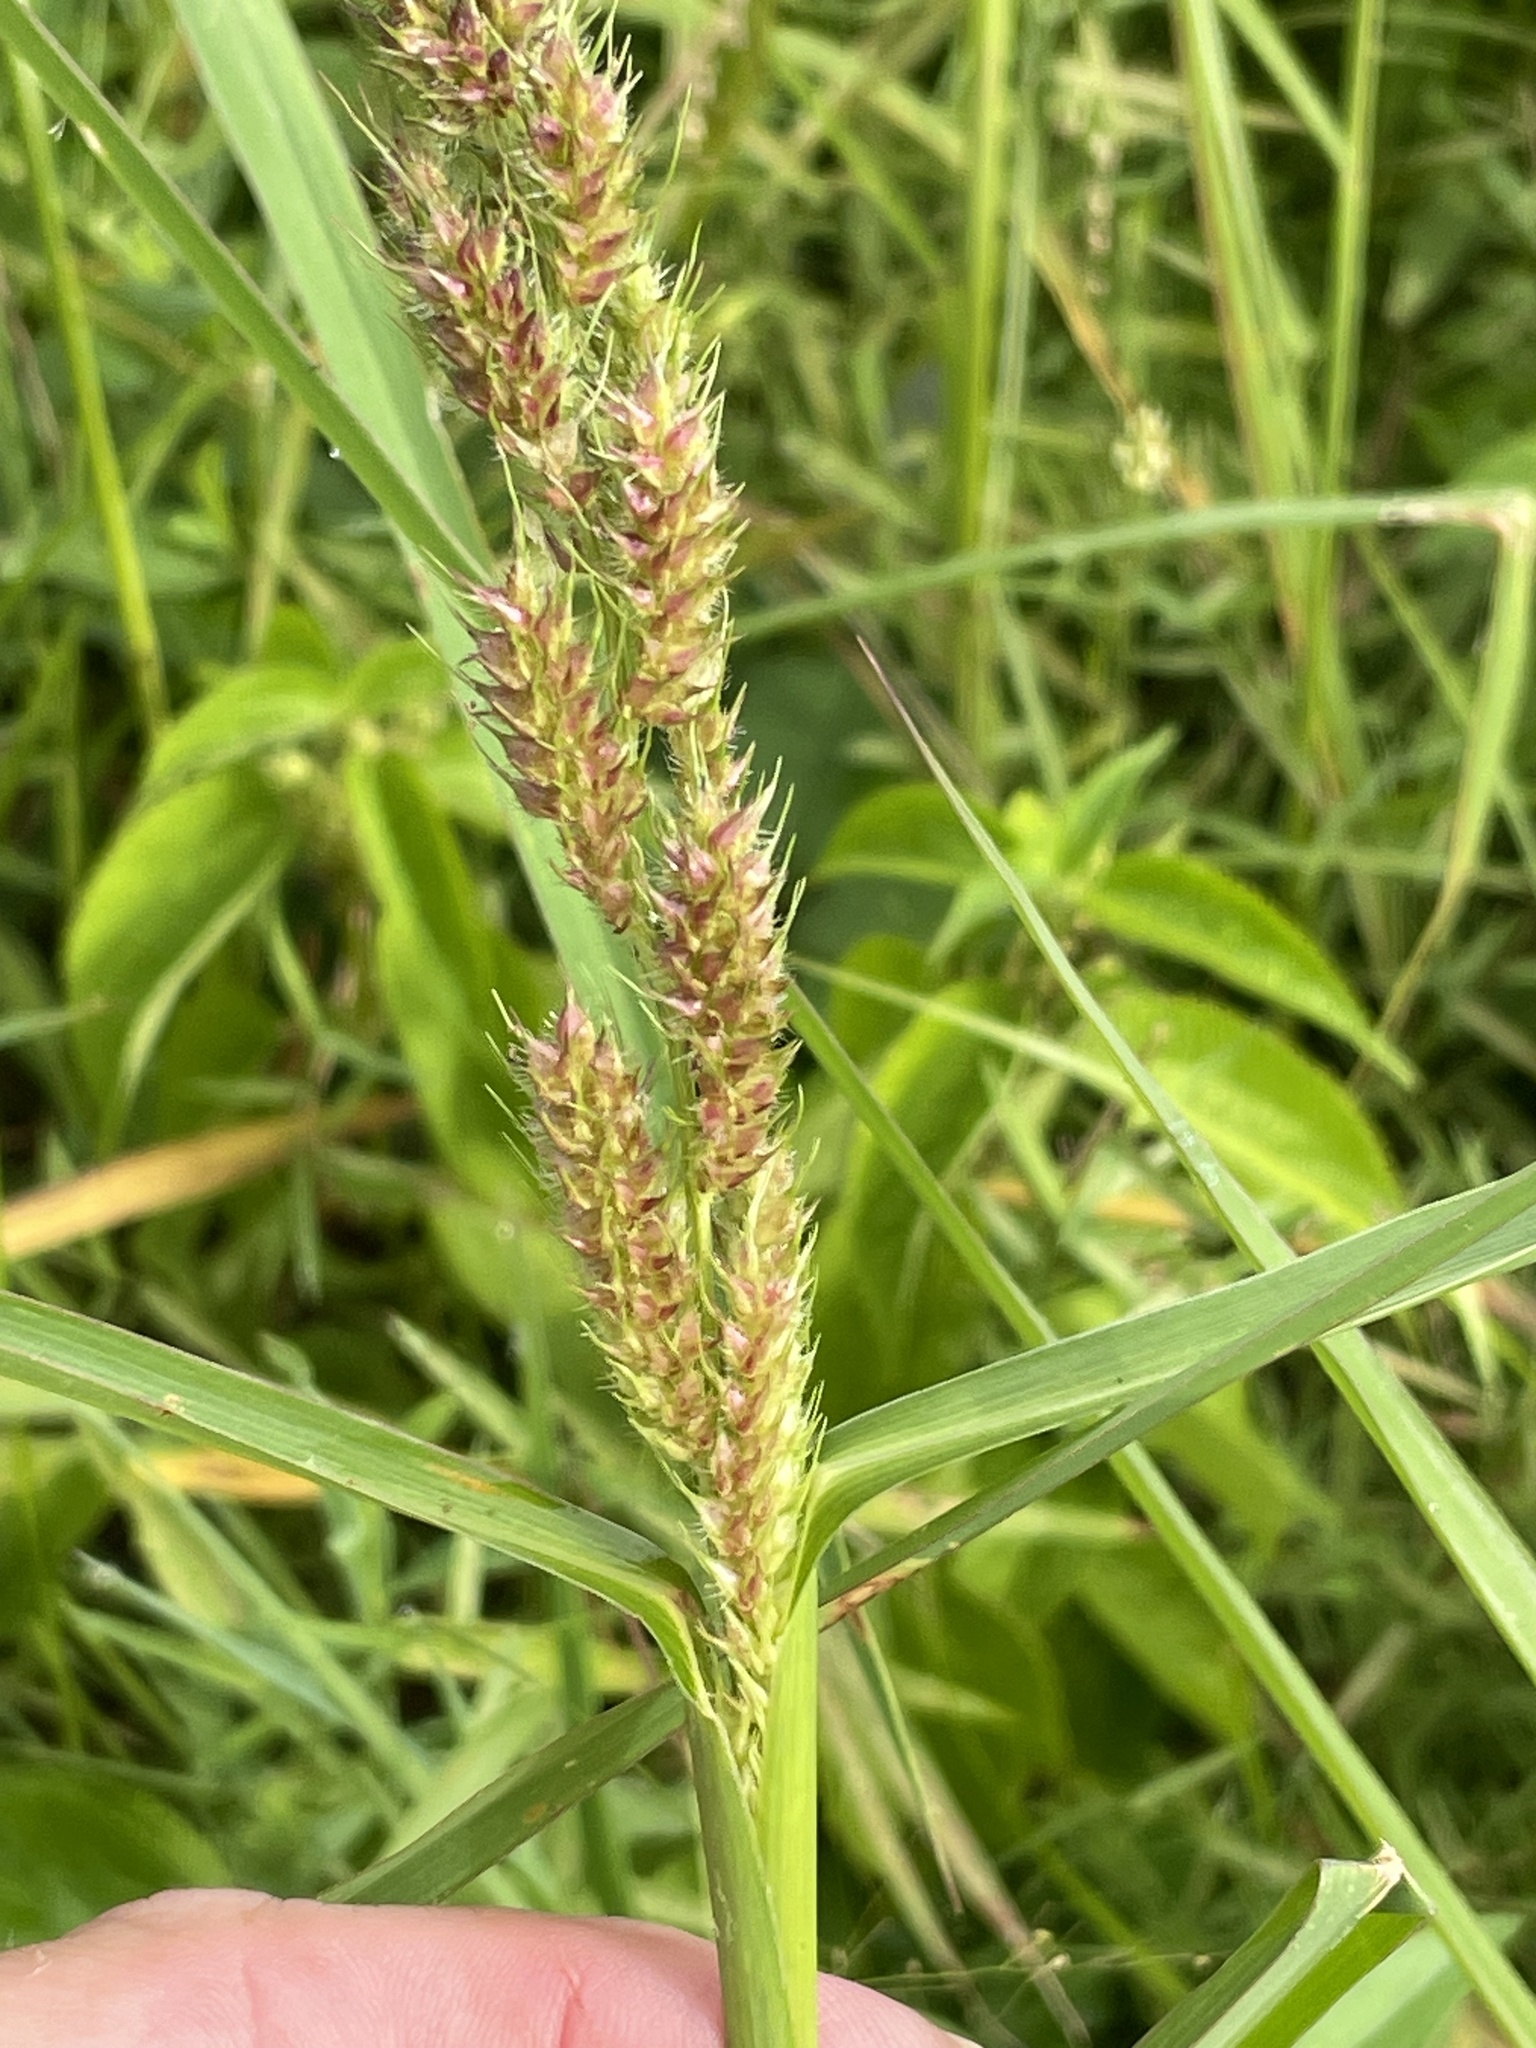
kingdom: Plantae
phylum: Tracheophyta
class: Liliopsida
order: Poales
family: Poaceae
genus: Echinochloa
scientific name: Echinochloa muricata
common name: American barnyard grass
